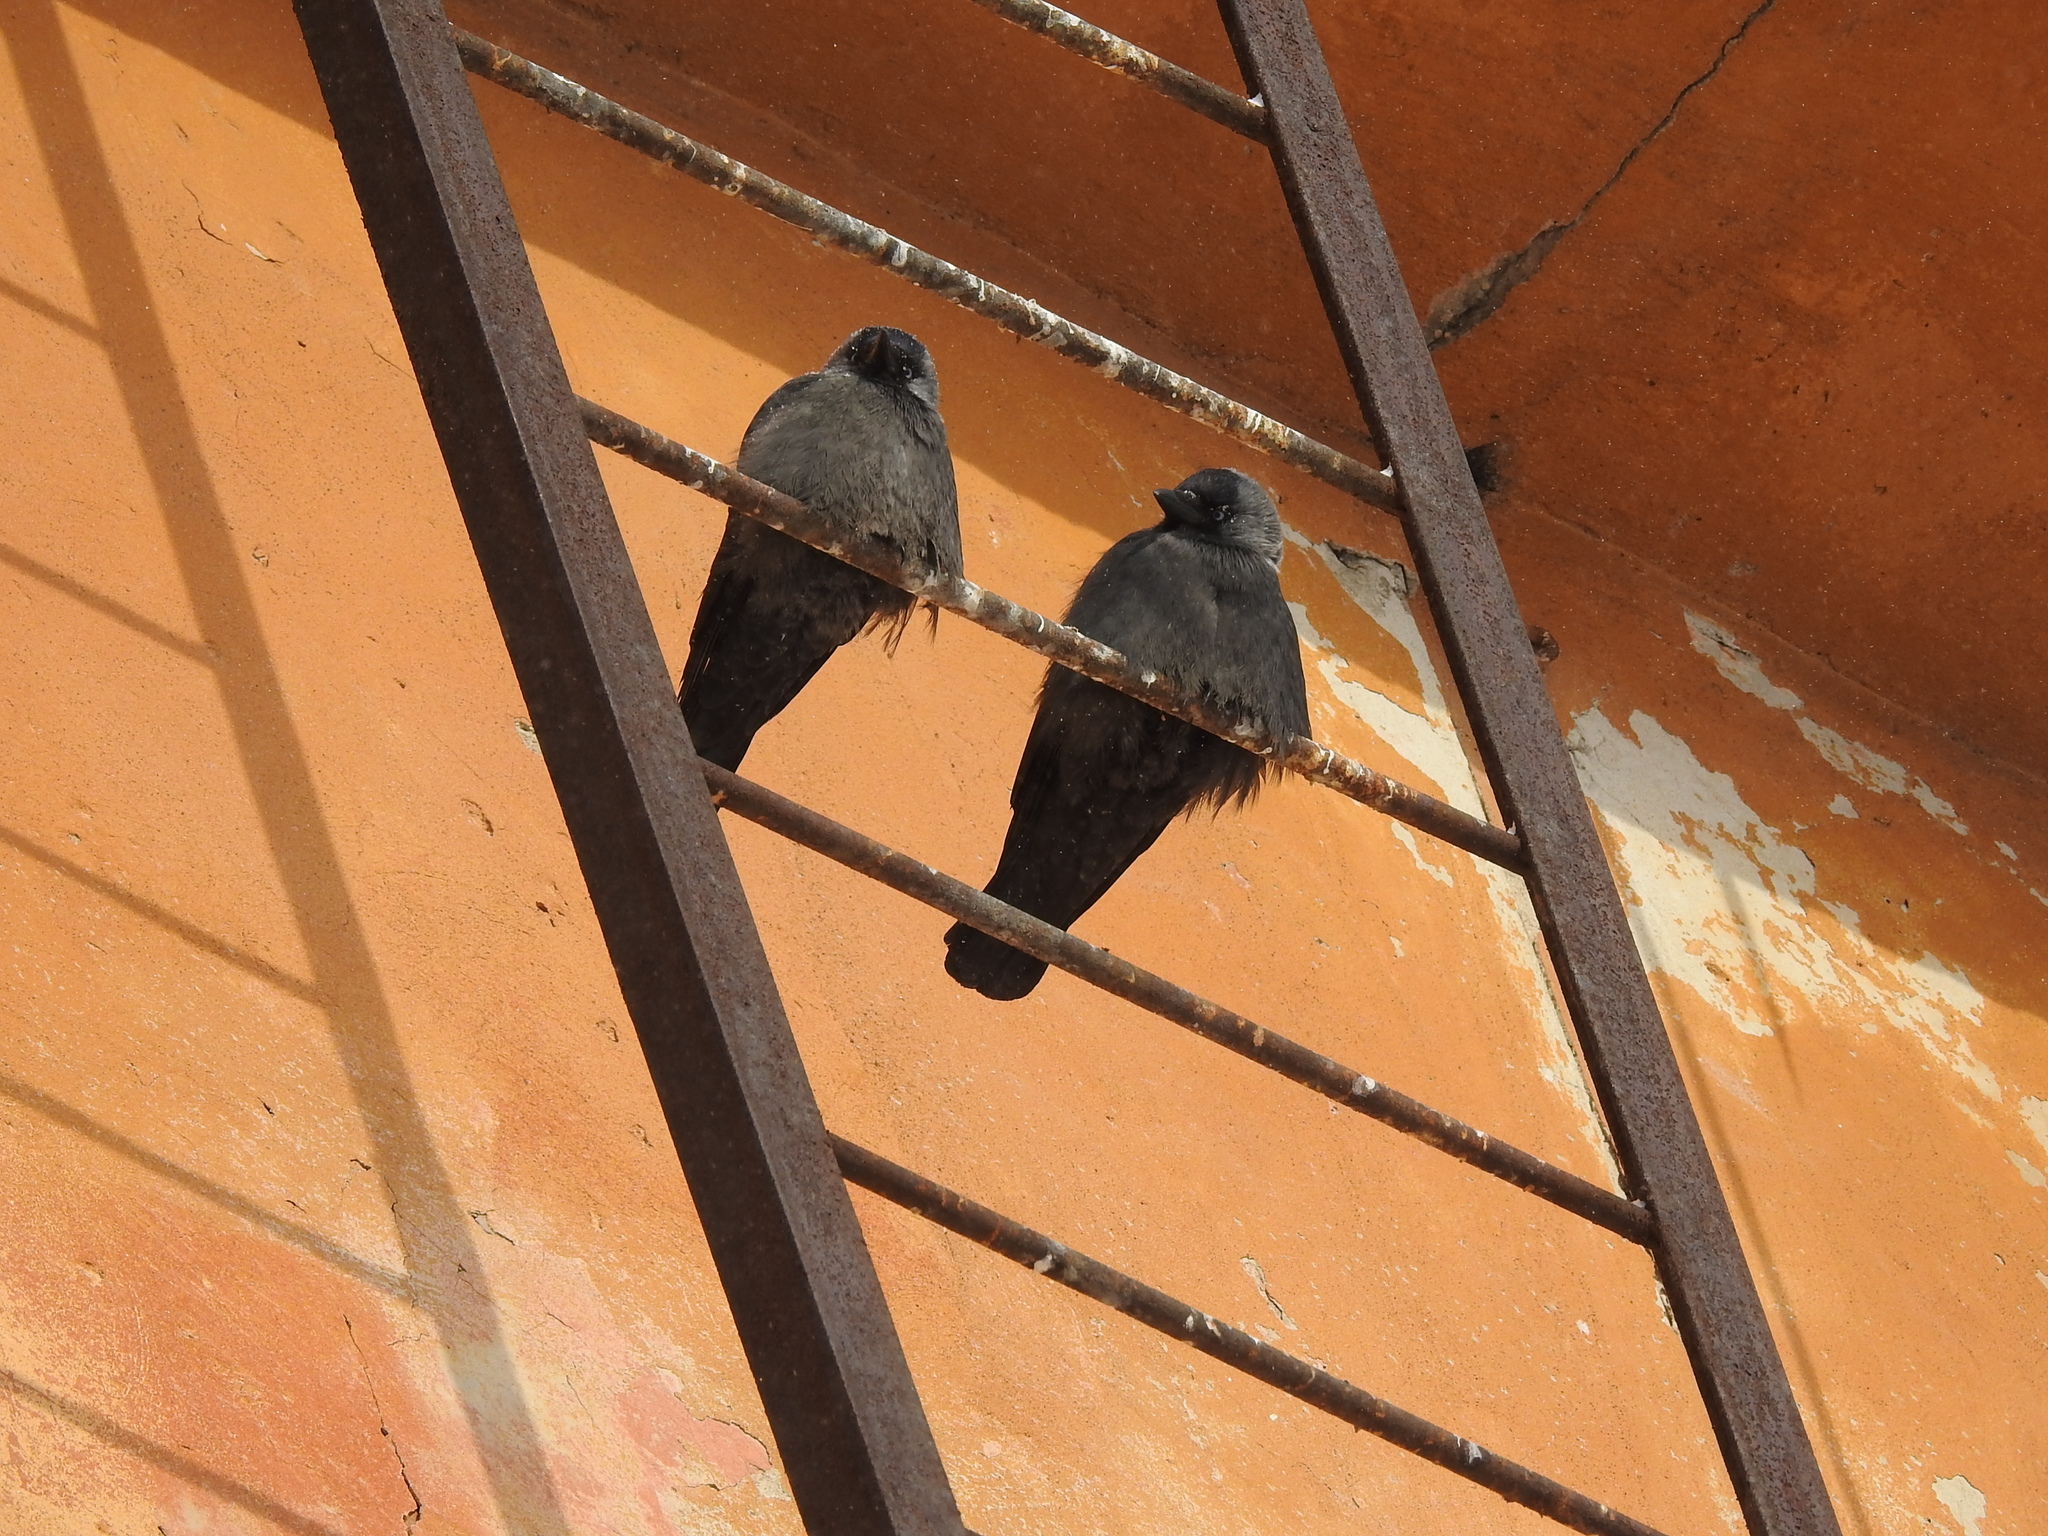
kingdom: Animalia
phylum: Chordata
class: Aves
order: Passeriformes
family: Corvidae
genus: Coloeus
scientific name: Coloeus monedula
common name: Western jackdaw
